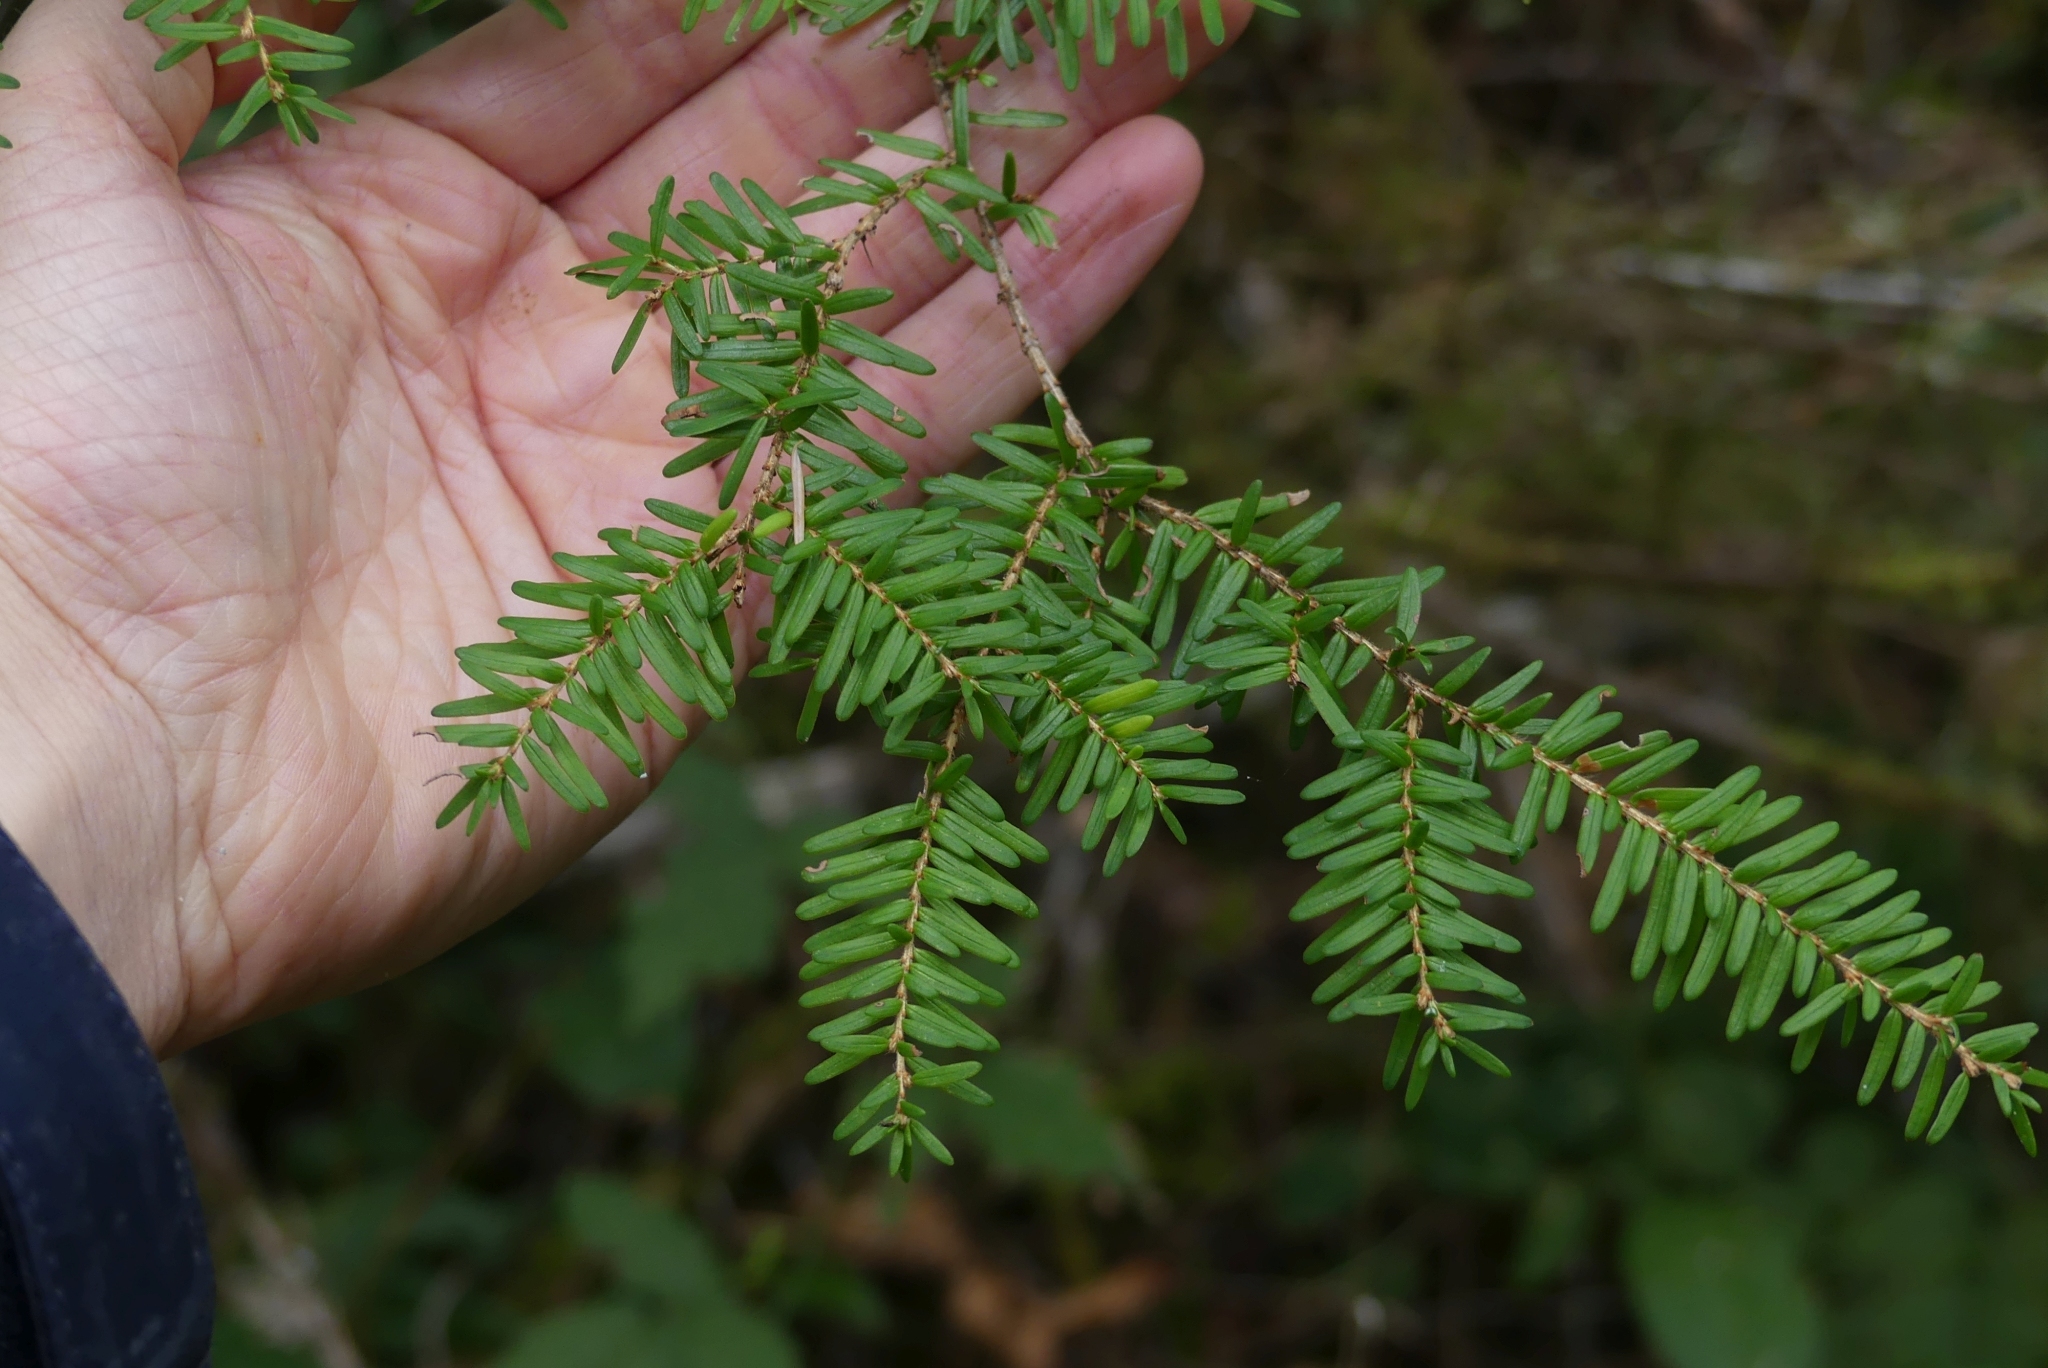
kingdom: Plantae
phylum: Tracheophyta
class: Pinopsida
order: Pinales
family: Pinaceae
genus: Tsuga
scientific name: Tsuga heterophylla
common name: Western hemlock
